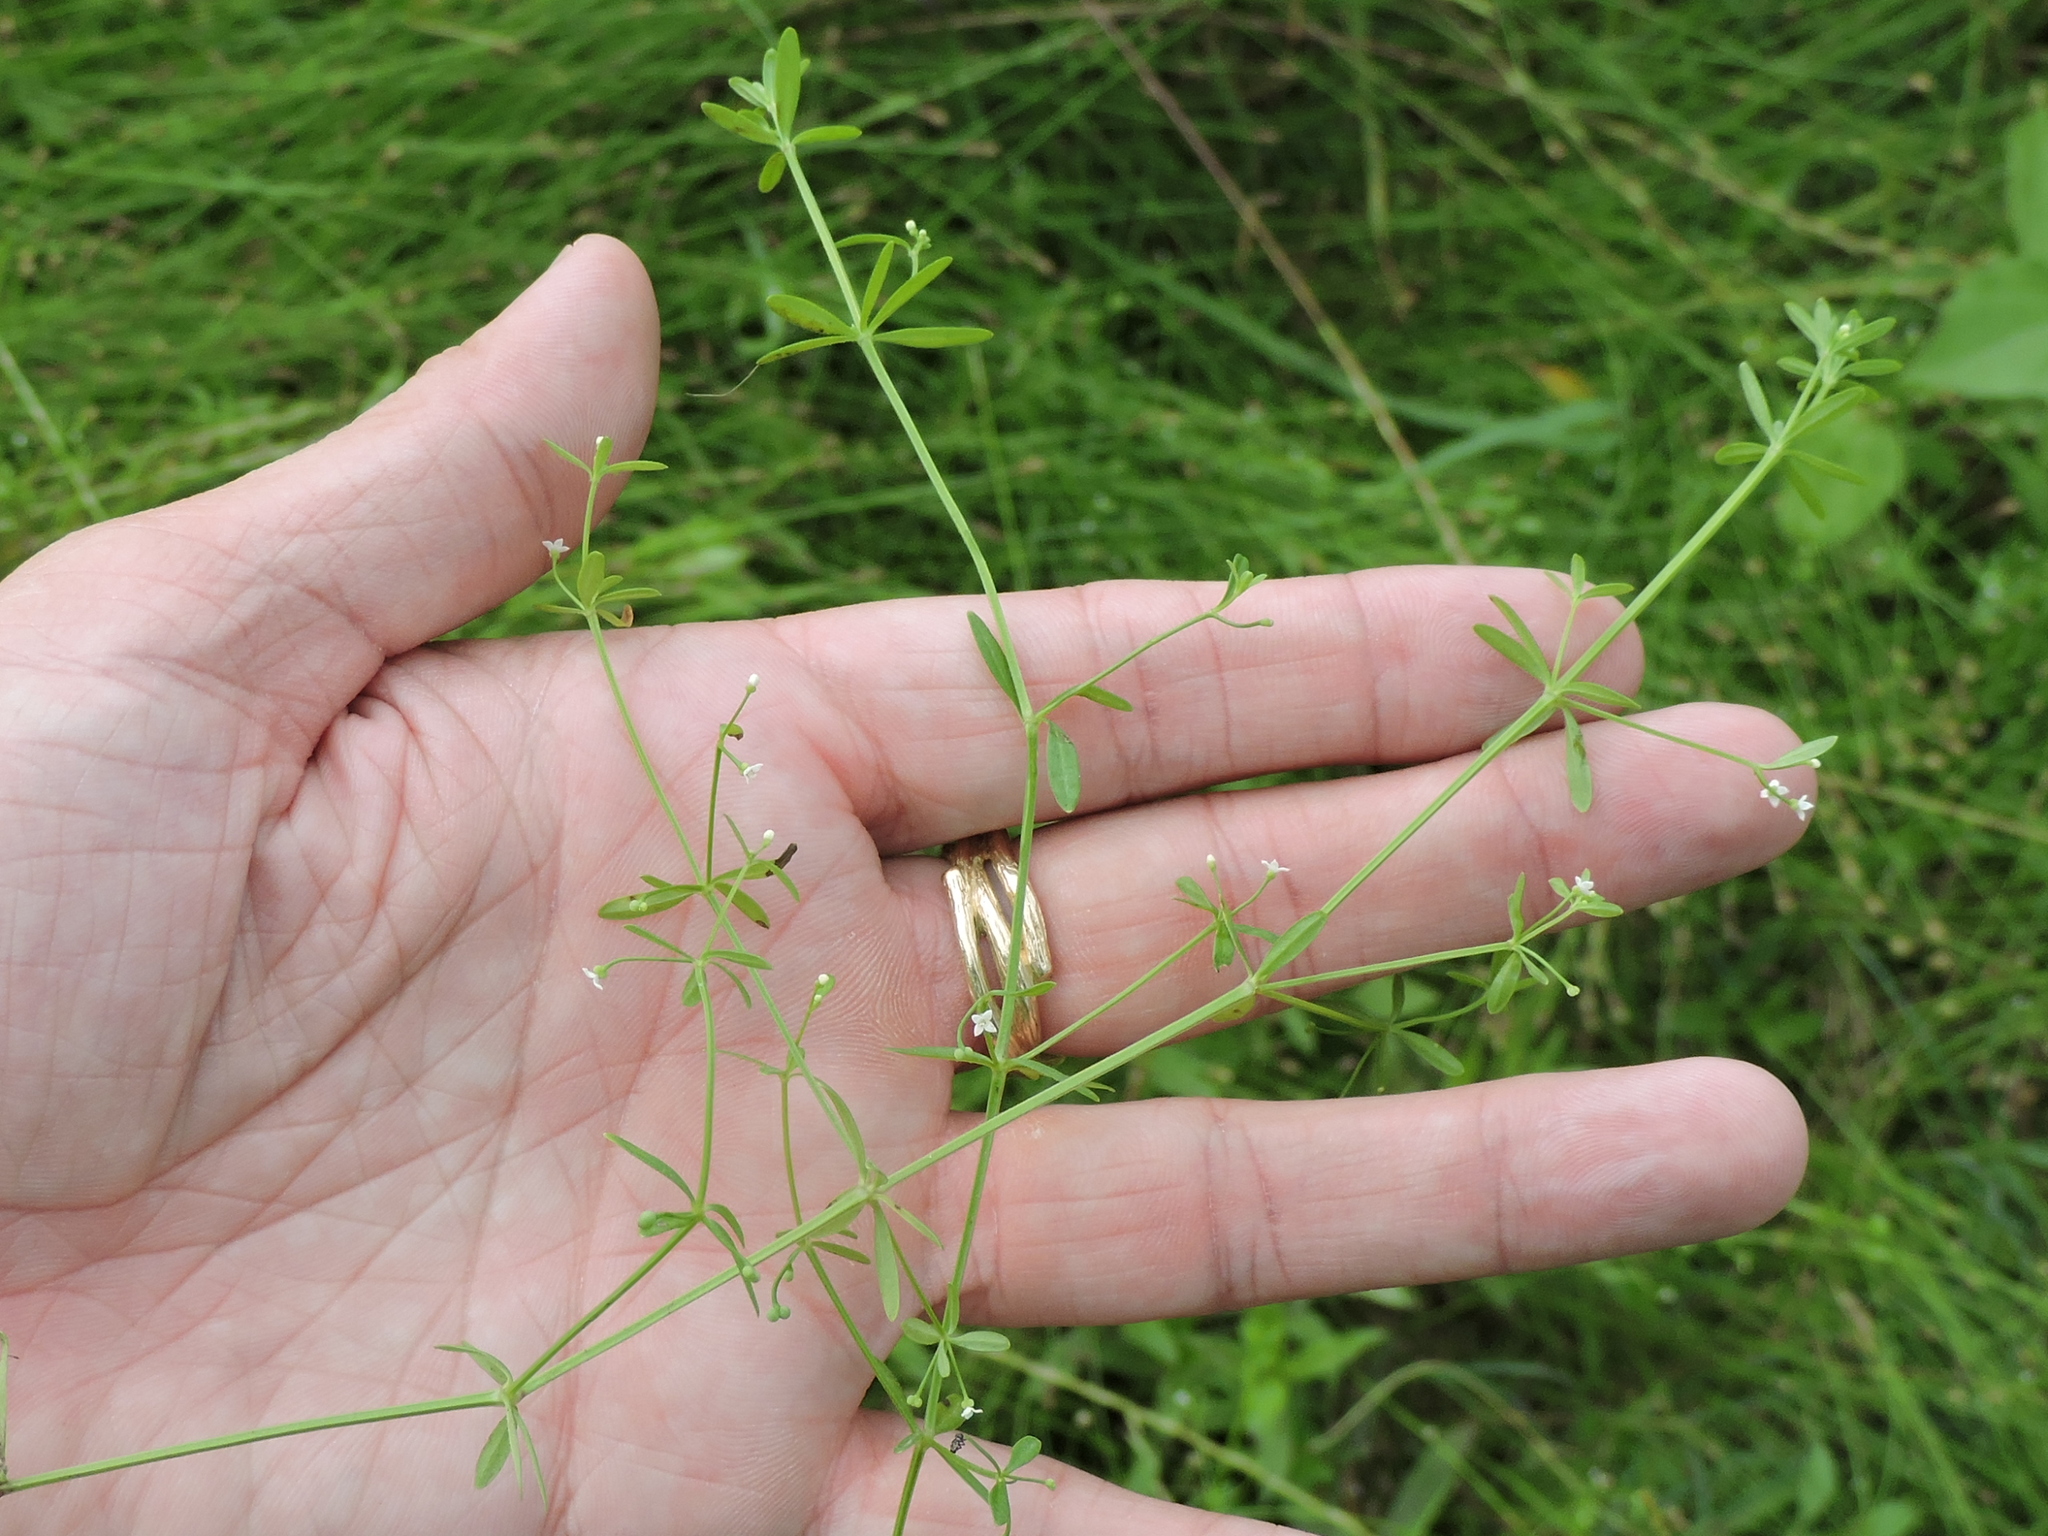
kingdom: Plantae
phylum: Tracheophyta
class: Magnoliopsida
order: Gentianales
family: Rubiaceae
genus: Galium
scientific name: Galium tinctorium
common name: Bedstraw
